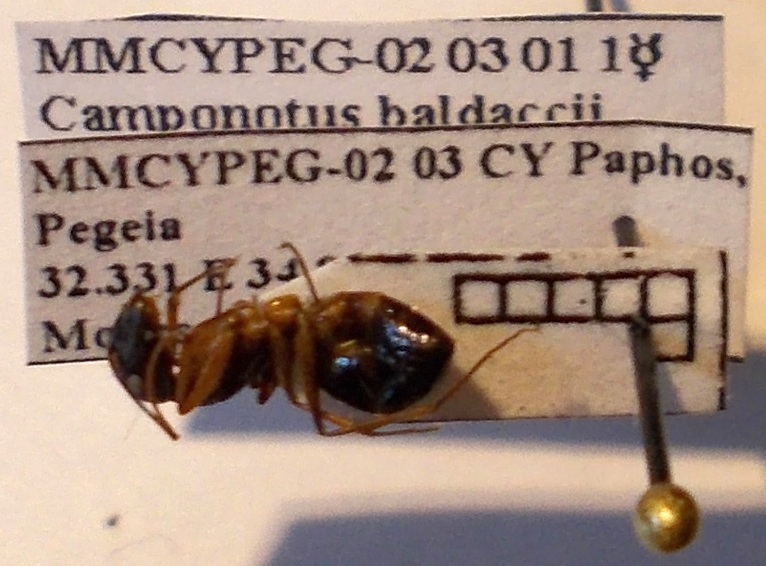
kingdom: Animalia
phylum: Arthropoda
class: Insecta
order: Hymenoptera
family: Formicidae
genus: Camponotus
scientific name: Camponotus baldaccii
